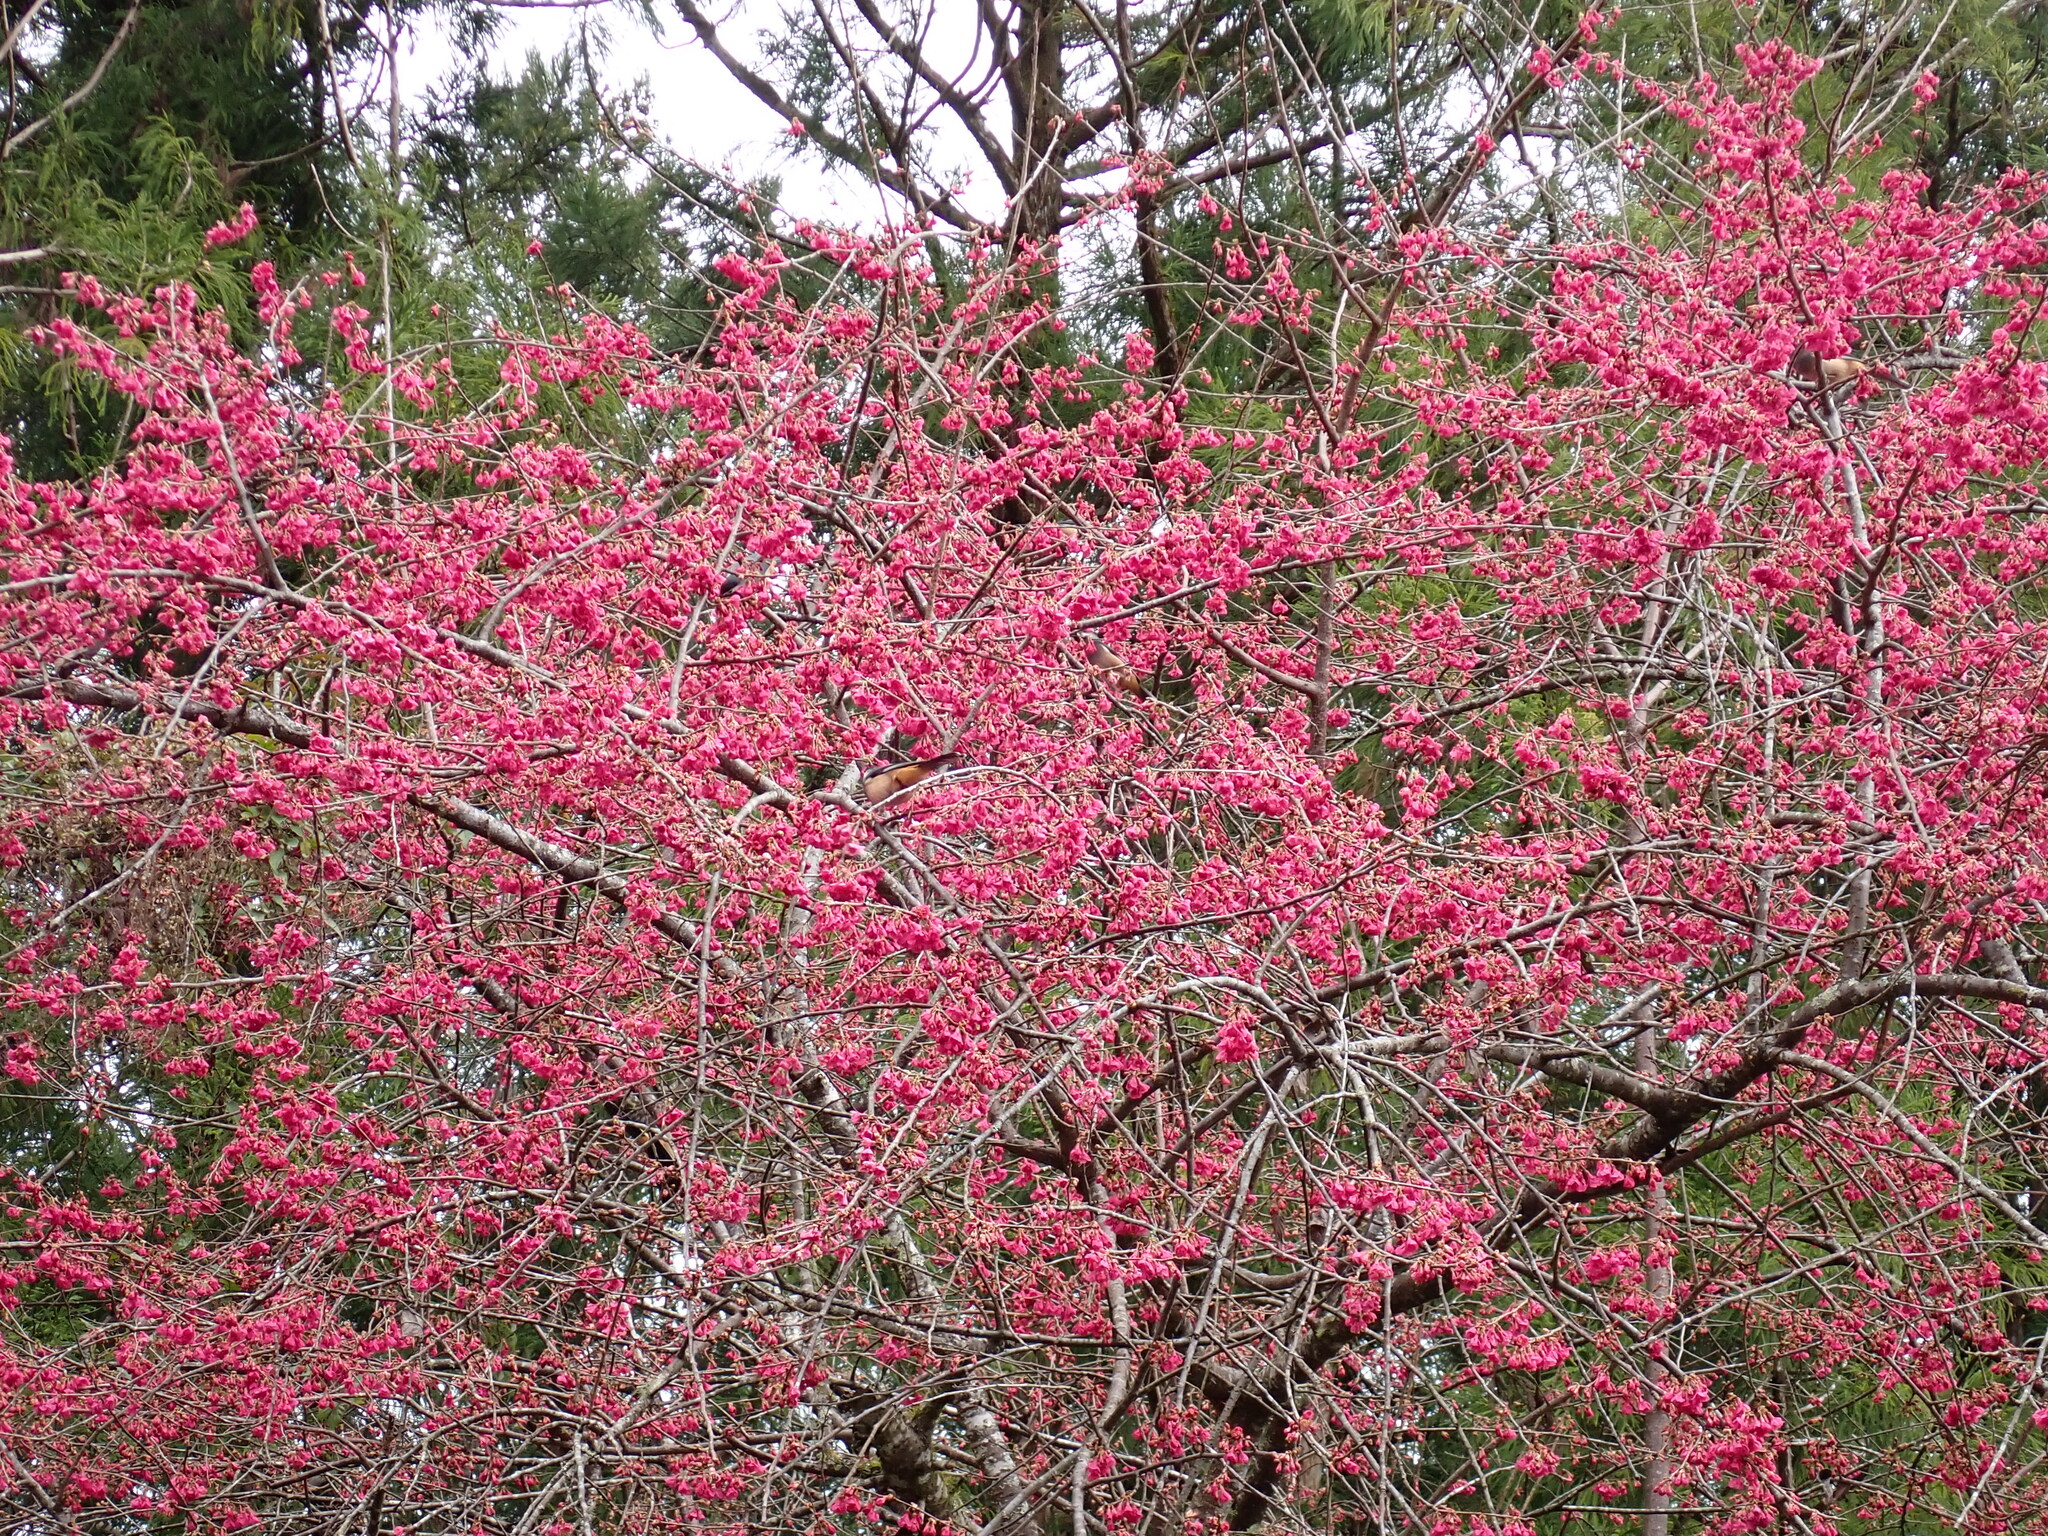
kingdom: Animalia
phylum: Chordata
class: Aves
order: Passeriformes
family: Leiothrichidae
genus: Heterophasia
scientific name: Heterophasia auricularis
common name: White-eared sibia
